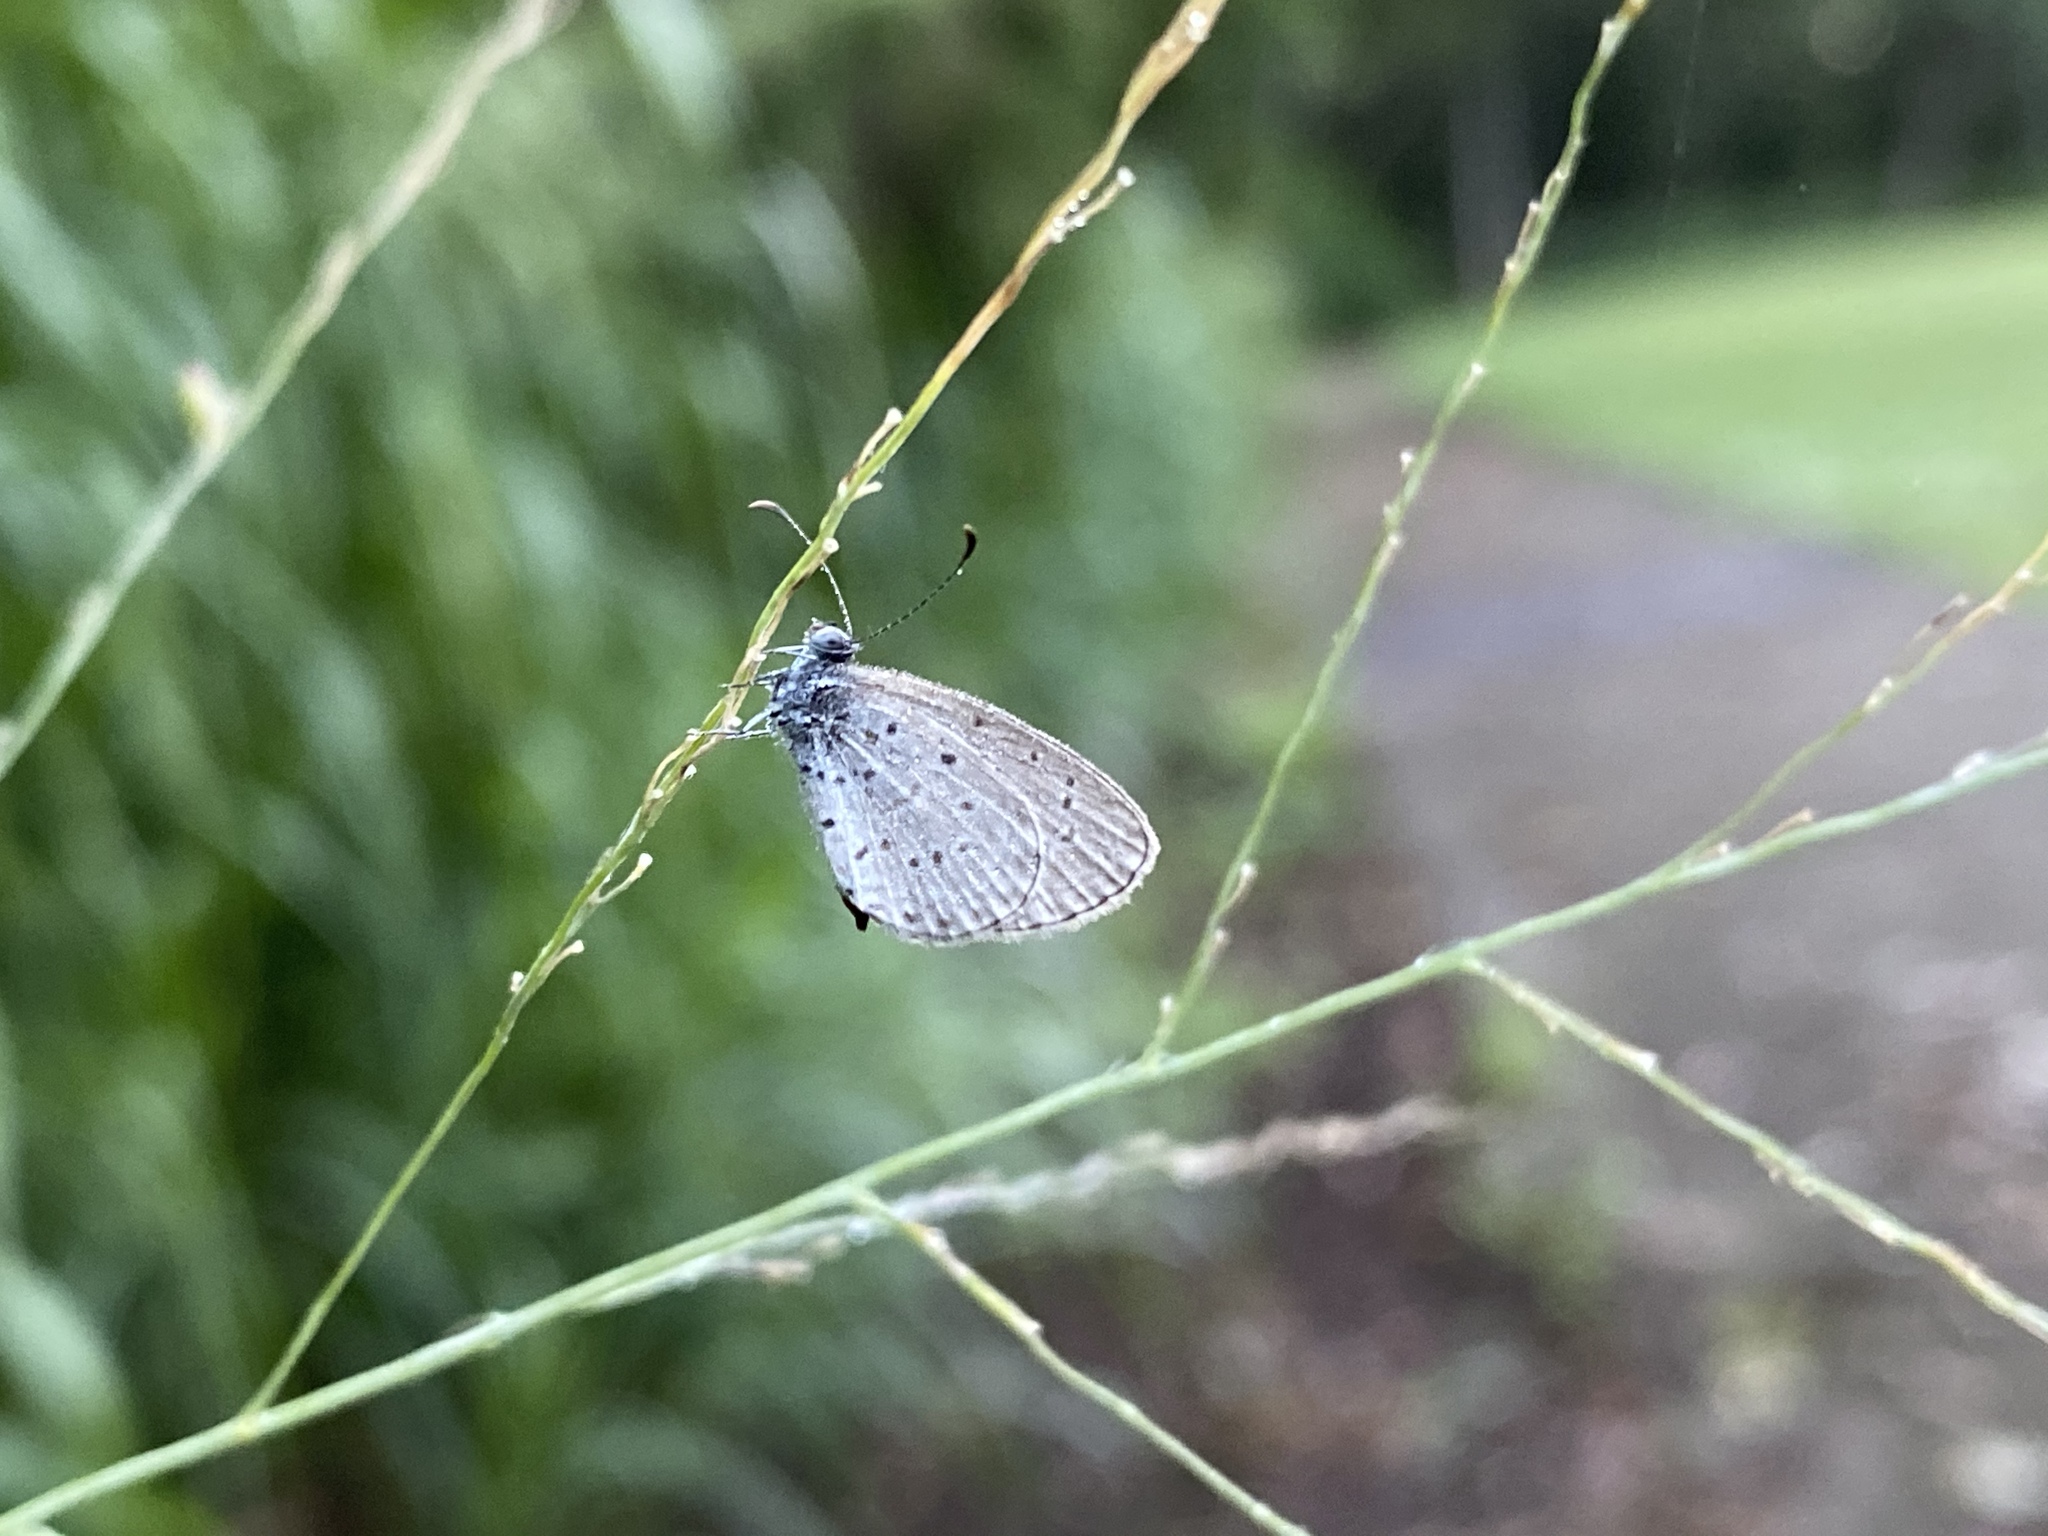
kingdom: Animalia
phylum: Arthropoda
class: Insecta
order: Lepidoptera
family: Lycaenidae
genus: Zizula
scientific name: Zizula hylax
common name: Gaika blue
